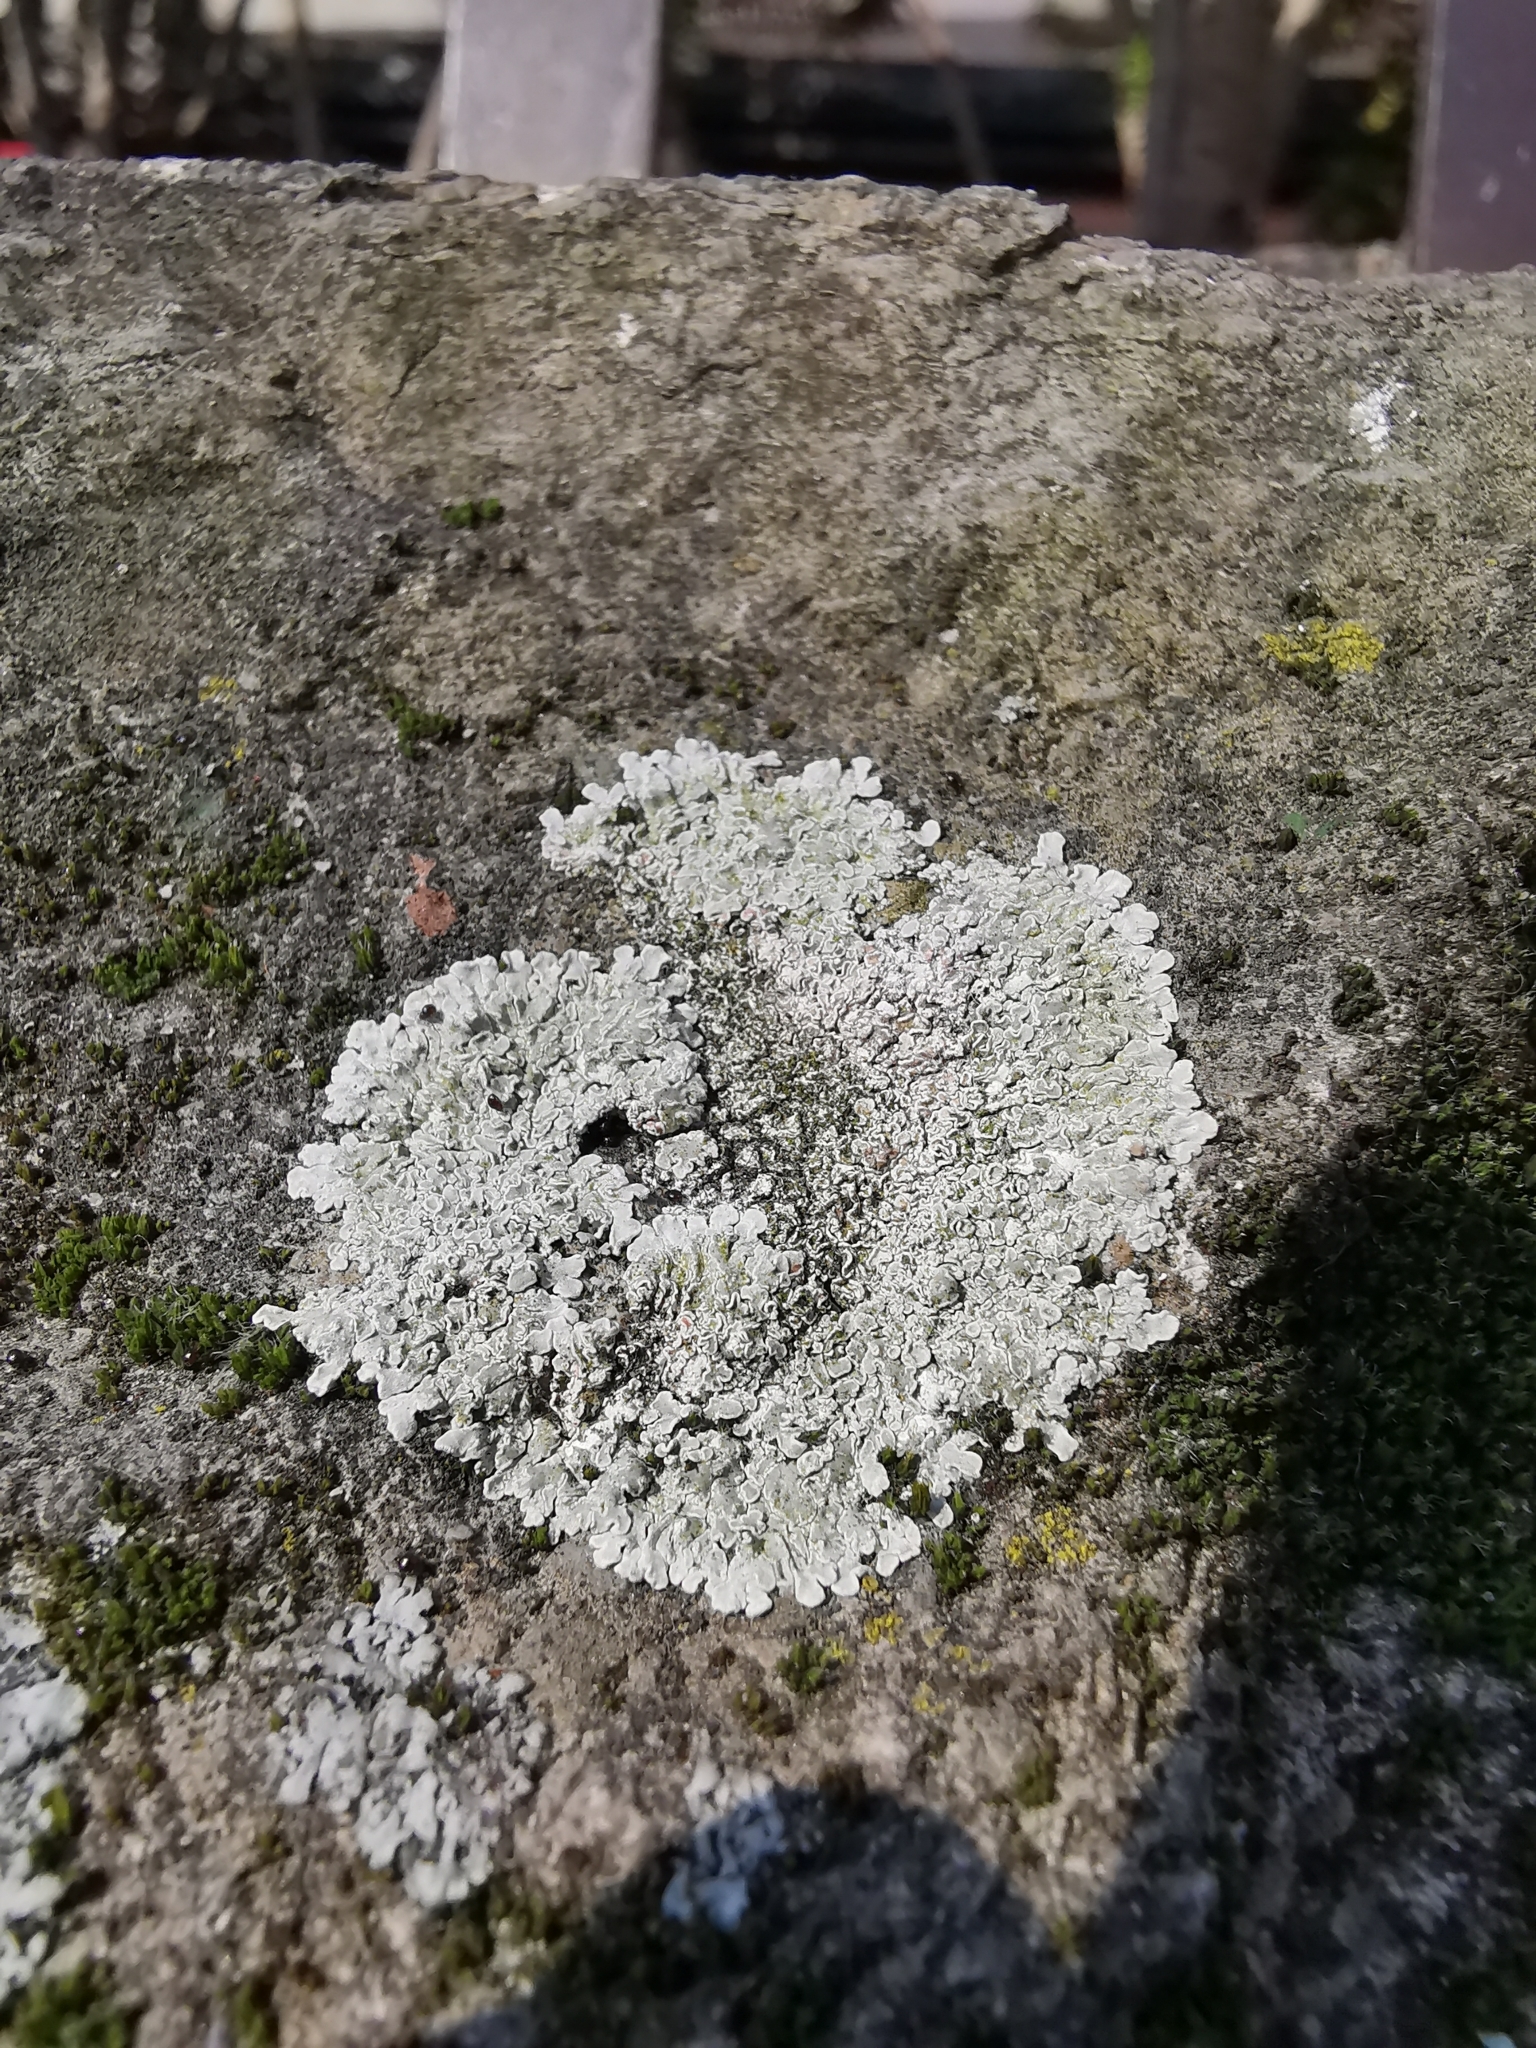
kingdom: Fungi
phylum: Ascomycota
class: Lecanoromycetes
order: Lecanorales
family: Lecanoraceae
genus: Protoparmeliopsis
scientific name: Protoparmeliopsis muralis
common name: Stonewall rim lichen
